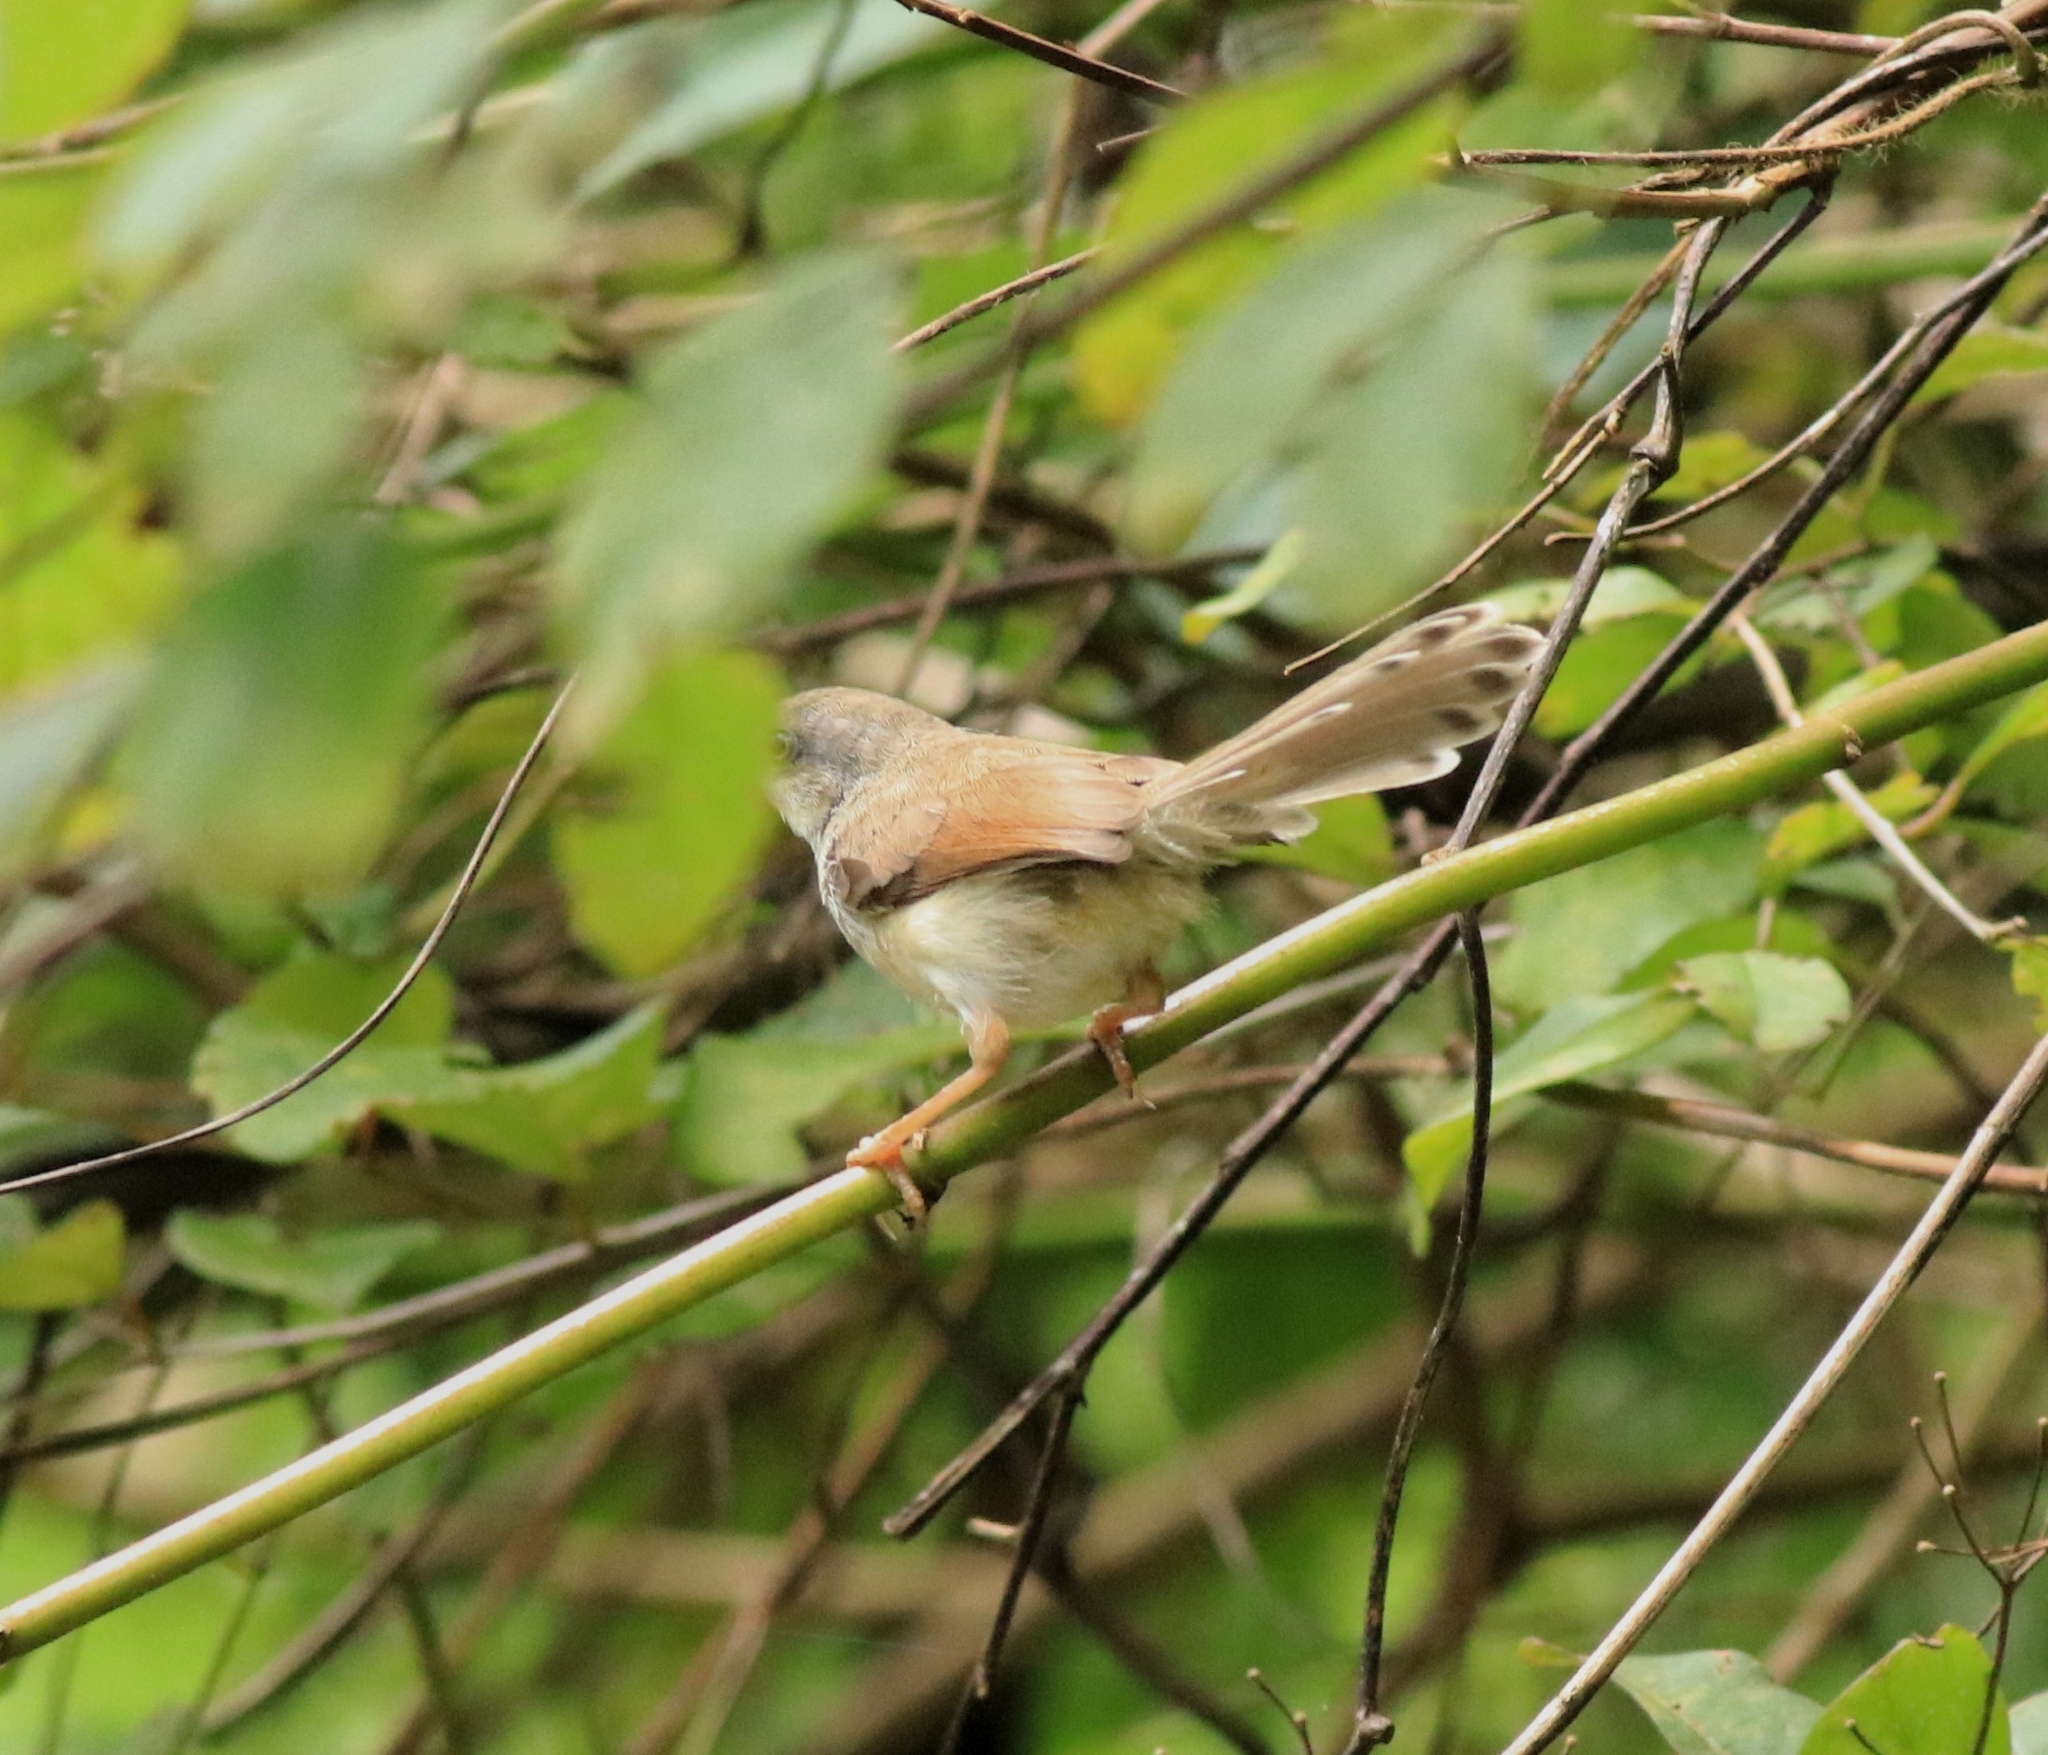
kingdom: Animalia
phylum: Chordata
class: Aves
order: Passeriformes
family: Cisticolidae
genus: Prinia
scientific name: Prinia hodgsonii
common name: Grey-breasted prinia
